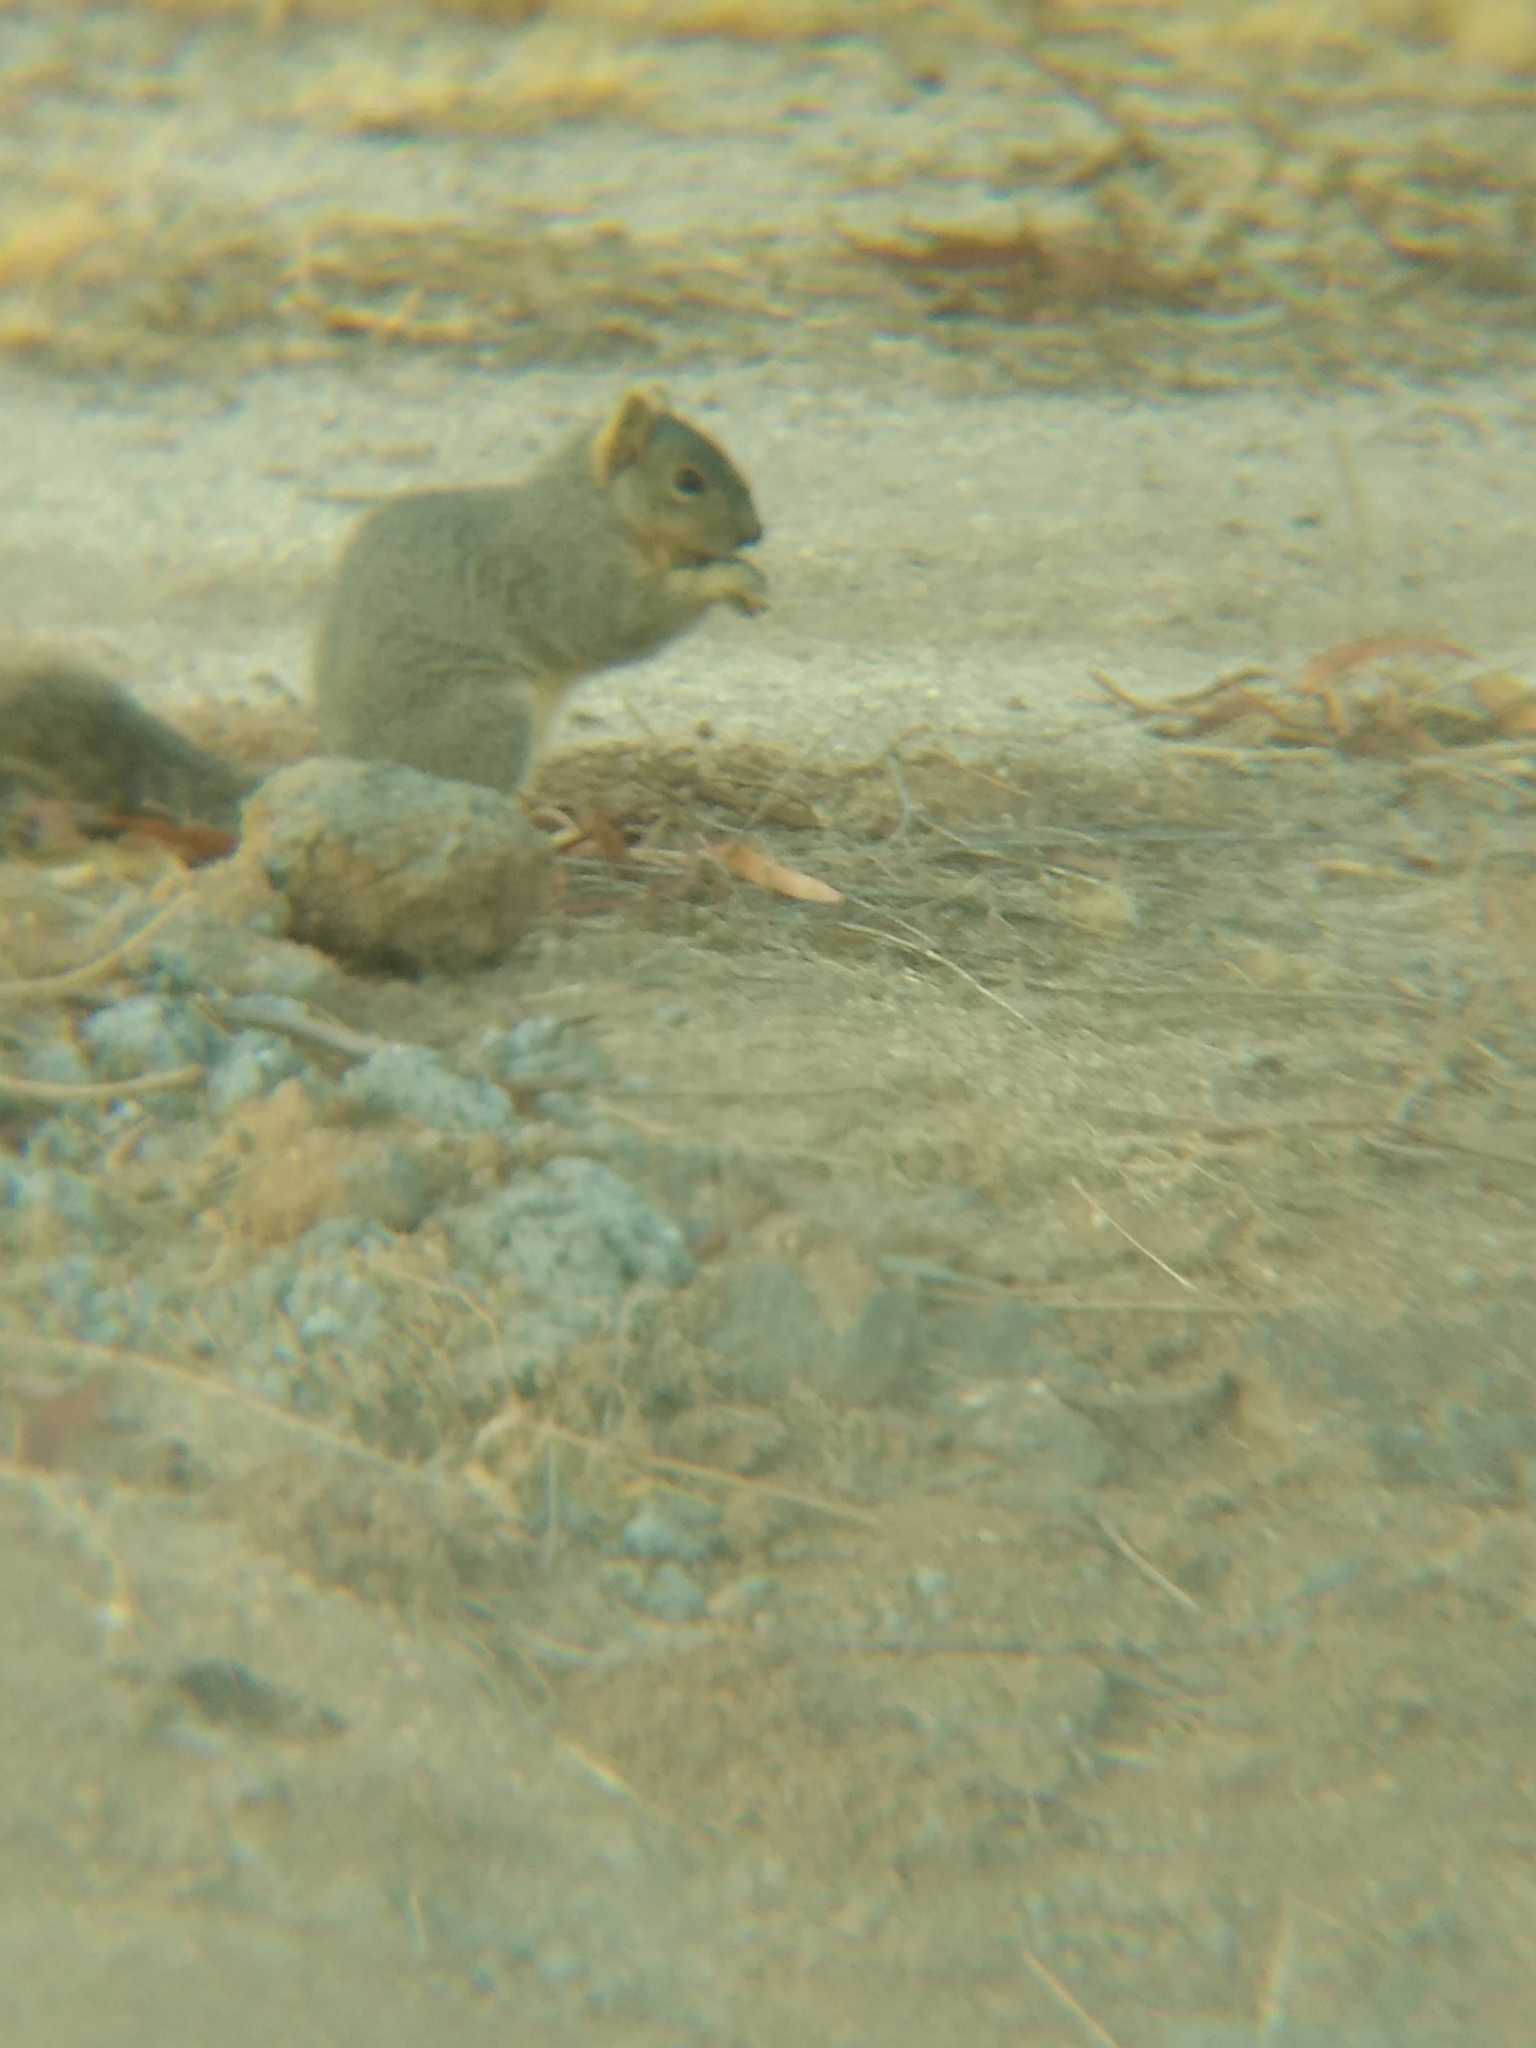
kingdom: Animalia
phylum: Chordata
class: Mammalia
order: Rodentia
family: Sciuridae
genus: Sciurus
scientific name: Sciurus niger
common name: Fox squirrel
